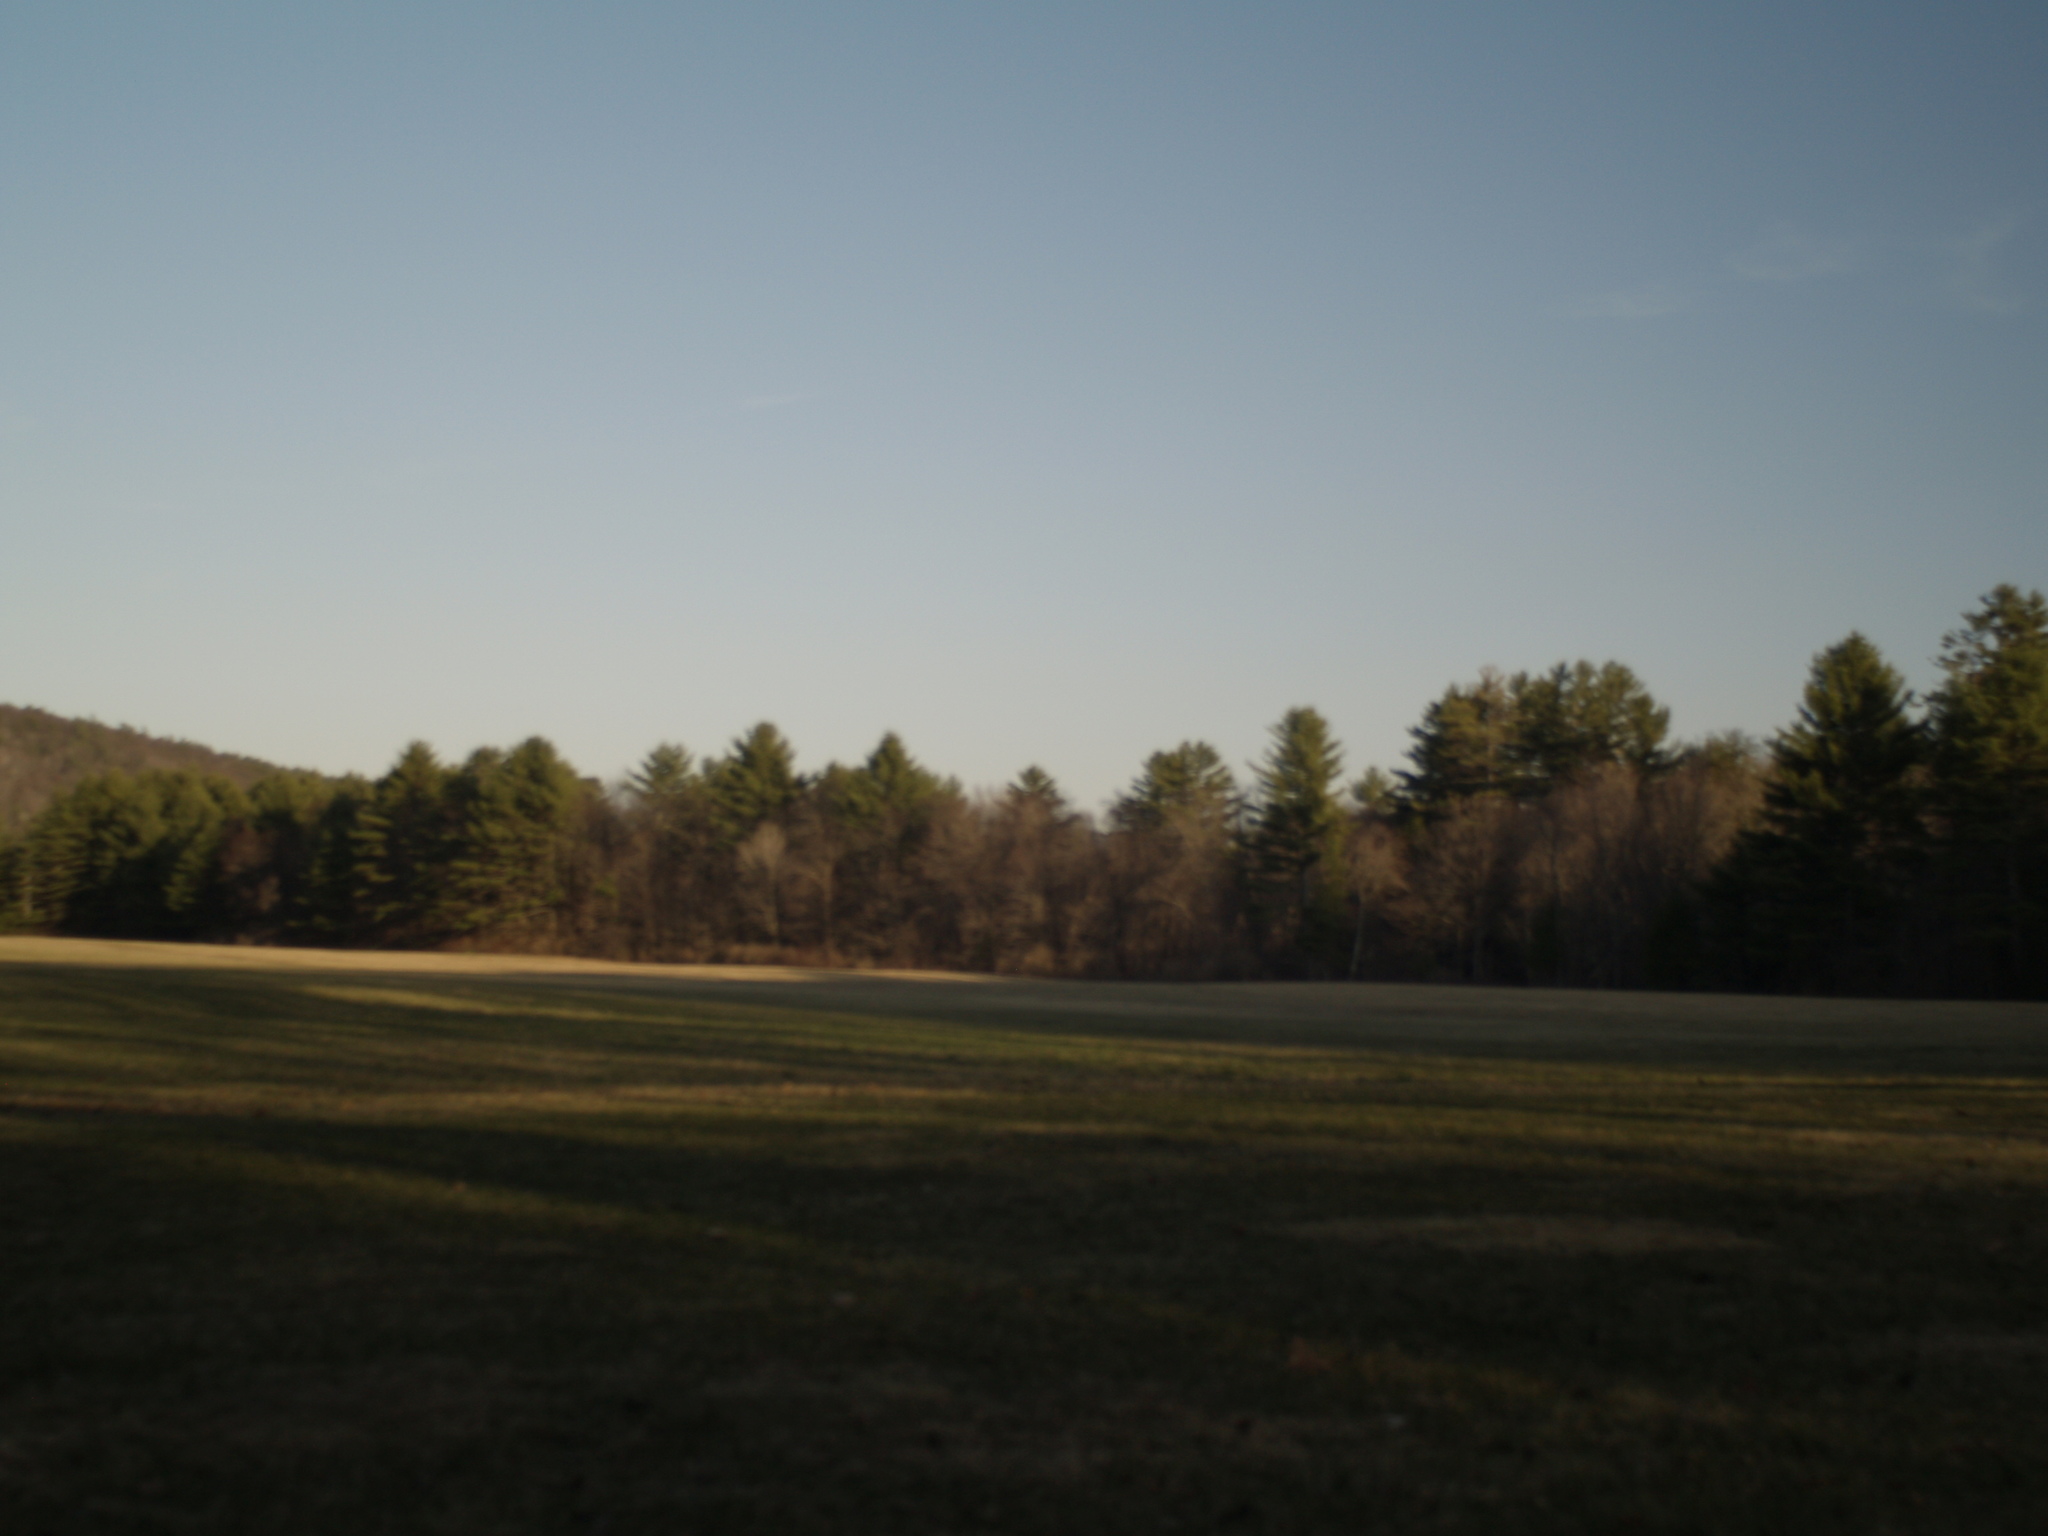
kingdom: Plantae
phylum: Tracheophyta
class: Pinopsida
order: Pinales
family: Pinaceae
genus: Pinus
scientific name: Pinus strobus
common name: Weymouth pine
